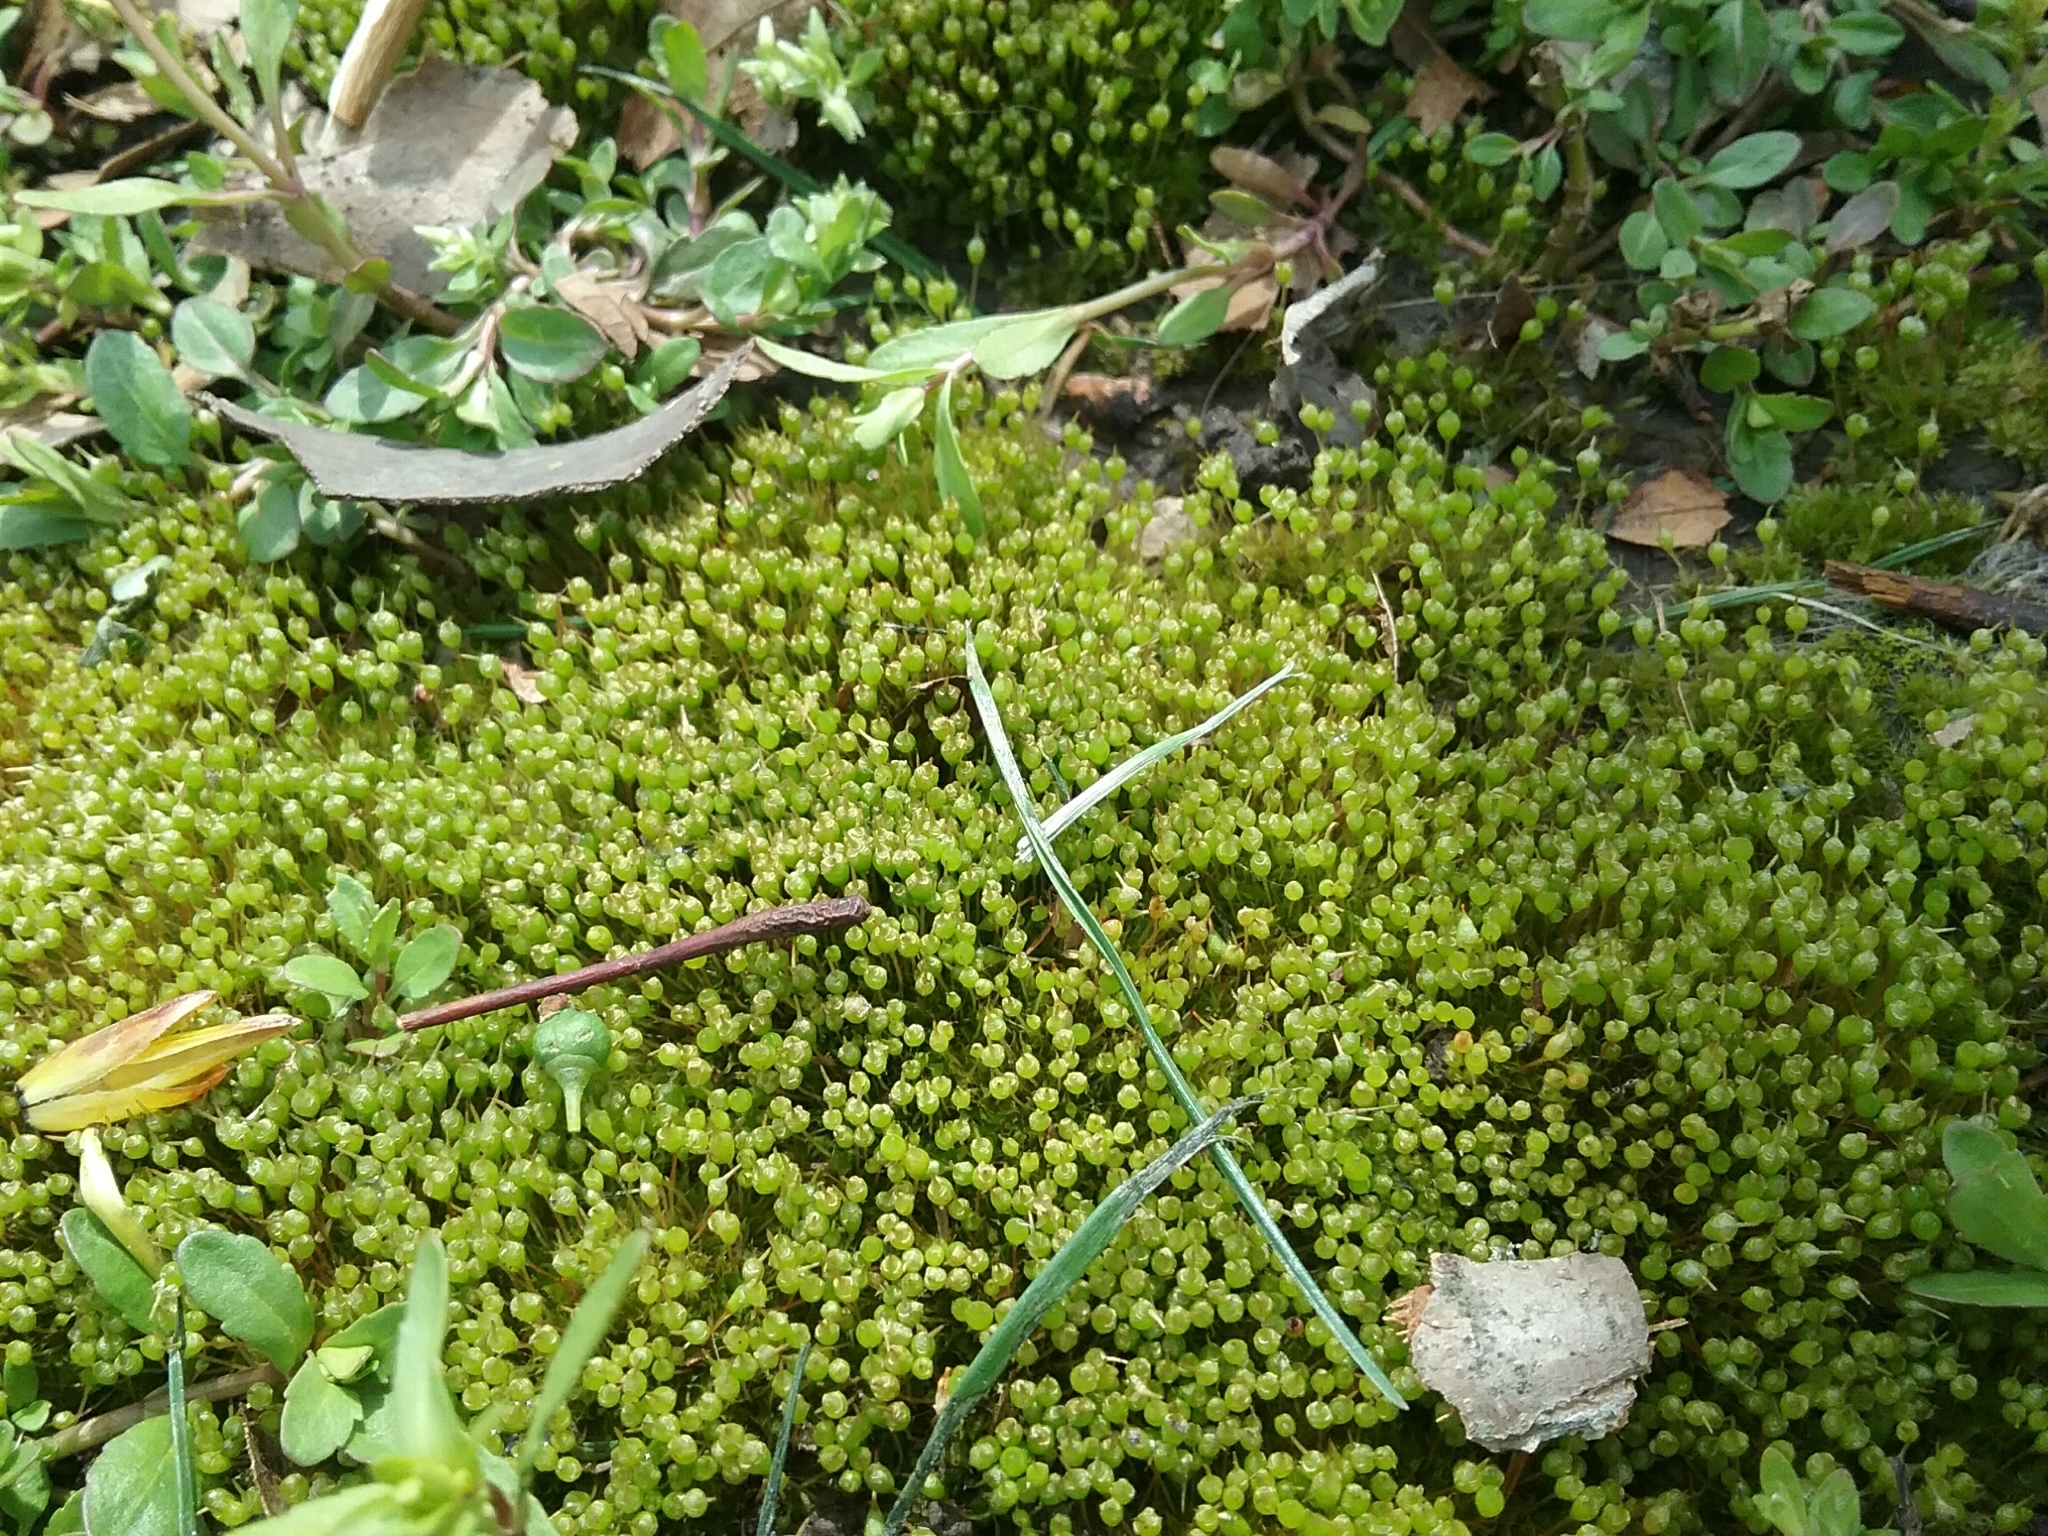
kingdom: Plantae
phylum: Bryophyta
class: Bryopsida
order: Funariales
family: Funariaceae
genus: Physcomitrium
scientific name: Physcomitrium pyriforme
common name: Common bladder-moss
